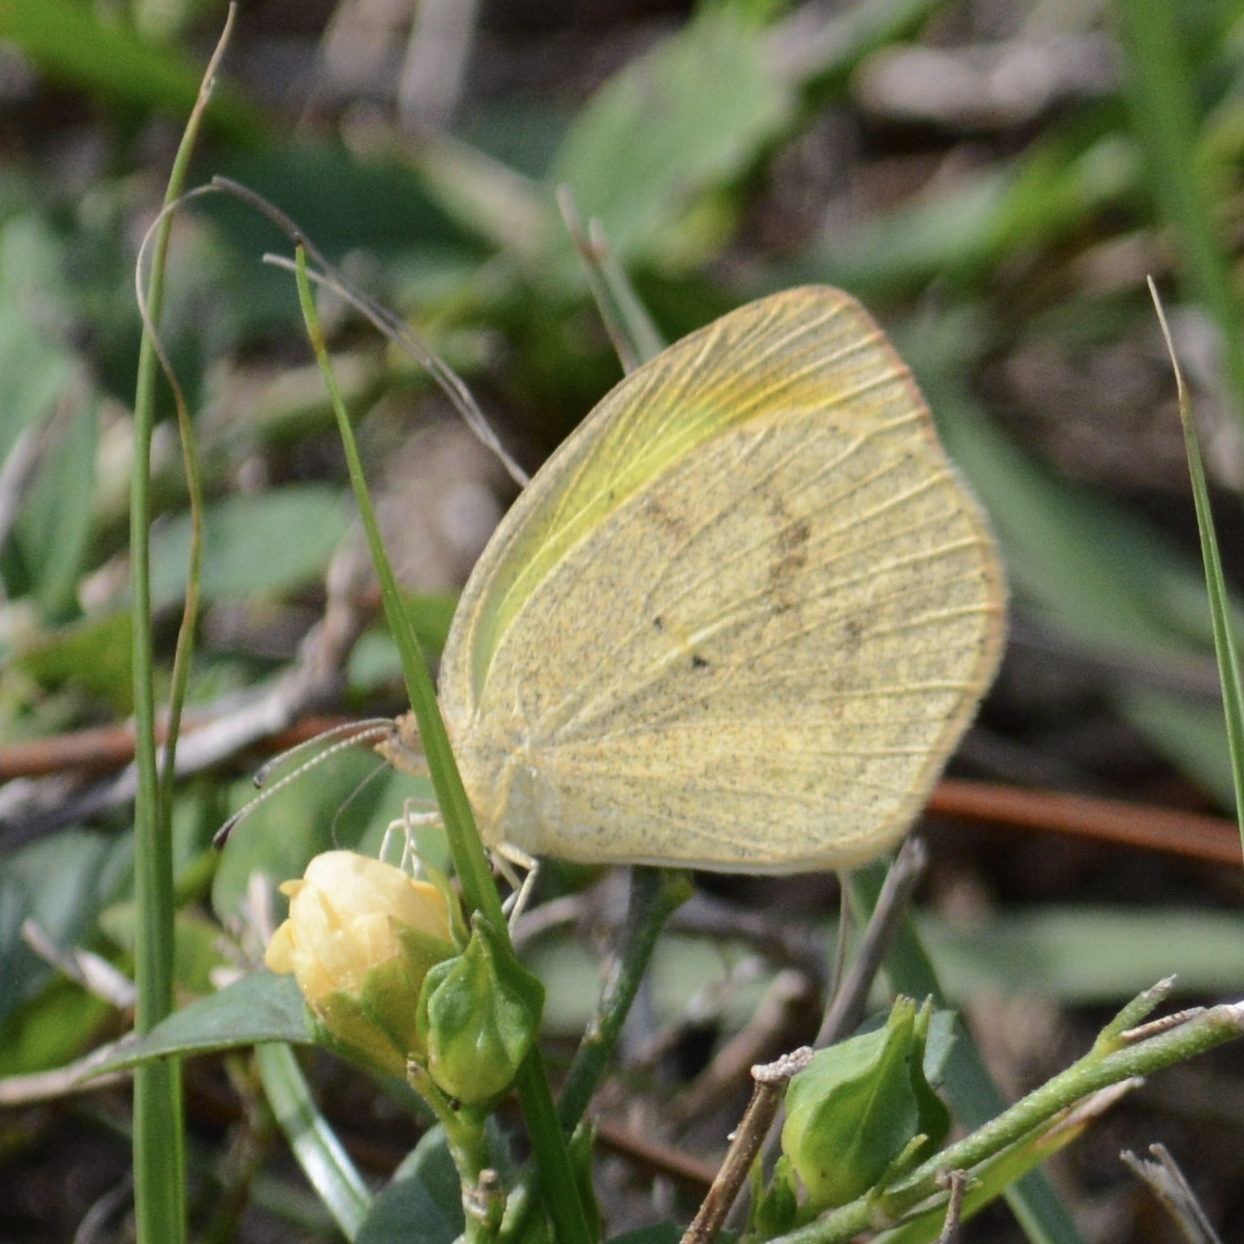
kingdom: Animalia
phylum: Arthropoda
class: Insecta
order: Lepidoptera
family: Pieridae
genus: Eurema
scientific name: Eurema daira
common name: Barred sulphur
